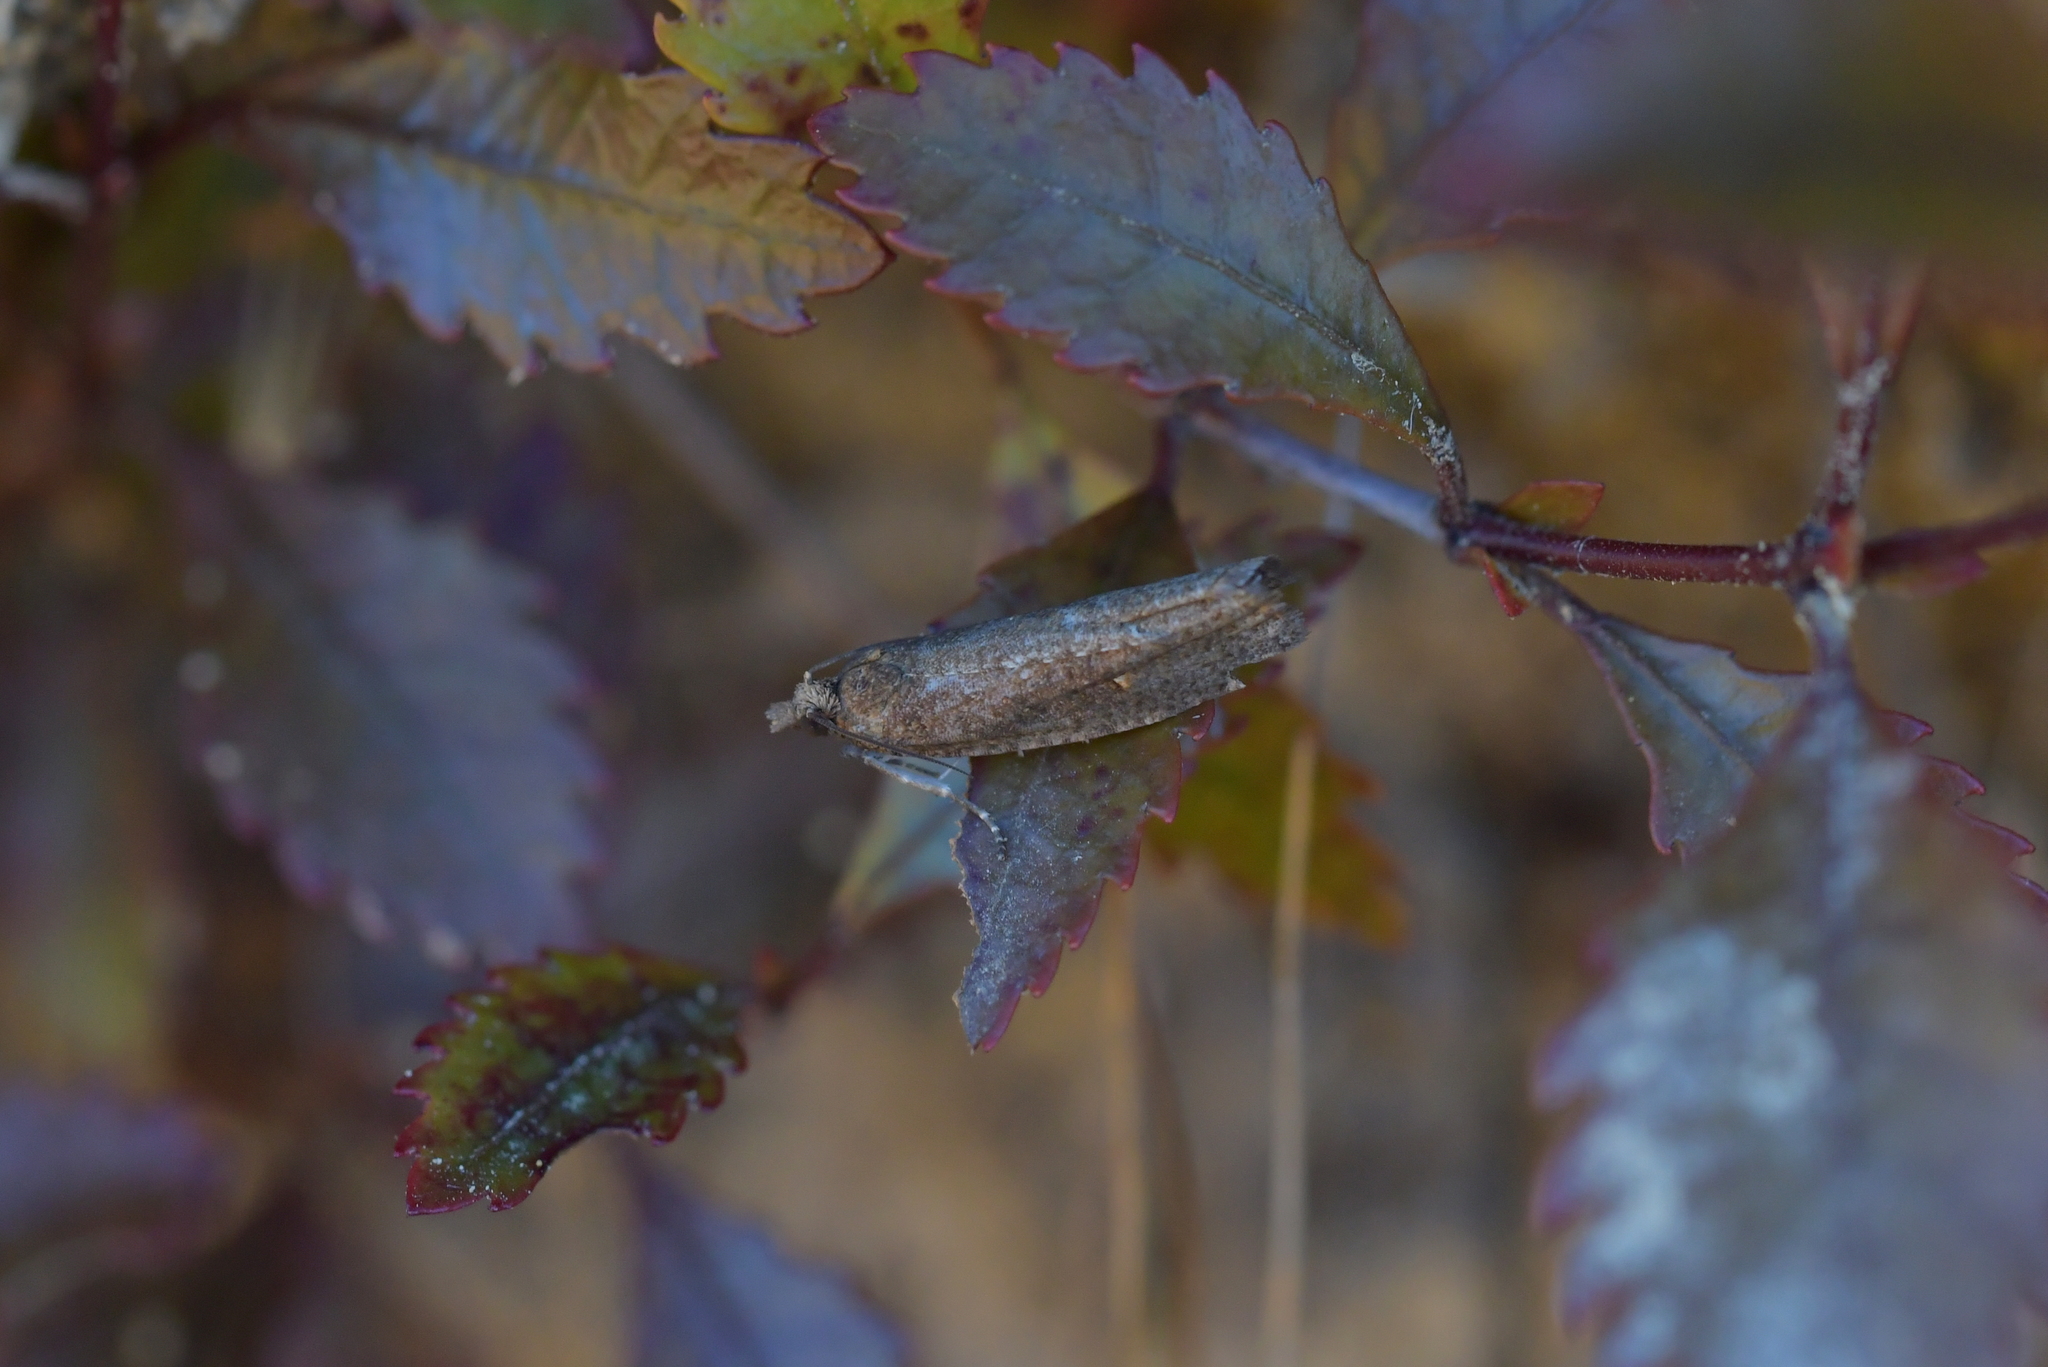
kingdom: Animalia
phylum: Arthropoda
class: Insecta
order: Lepidoptera
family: Tortricidae
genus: Cryptaspasma
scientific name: Cryptaspasma querula
